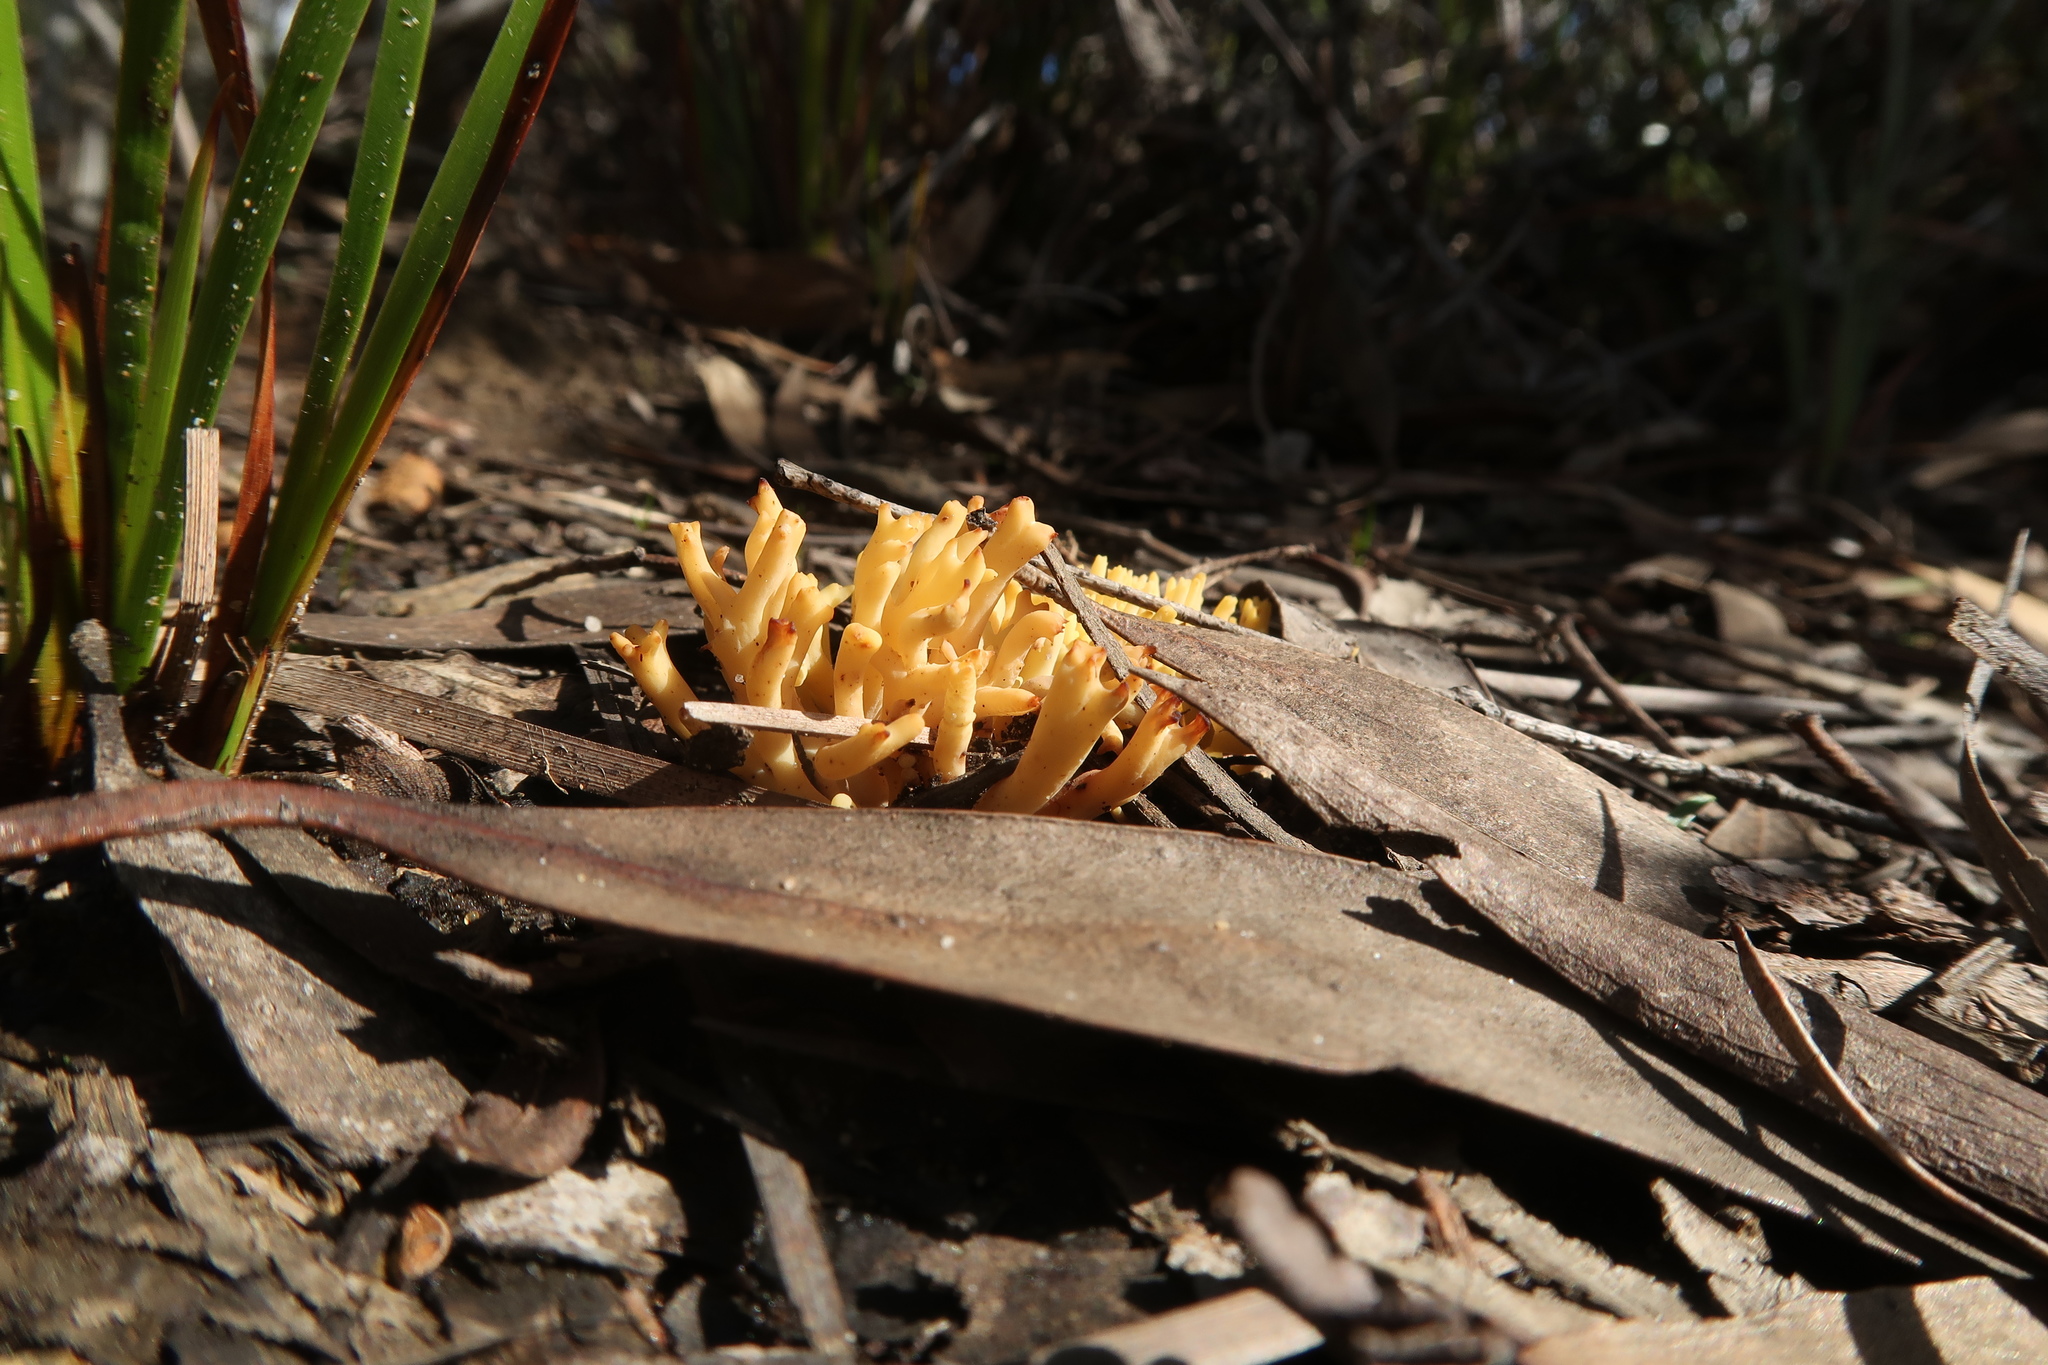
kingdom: Fungi
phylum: Basidiomycota
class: Agaricomycetes
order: Gomphales
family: Gomphaceae
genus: Ramaria
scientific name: Ramaria lorithamnus
